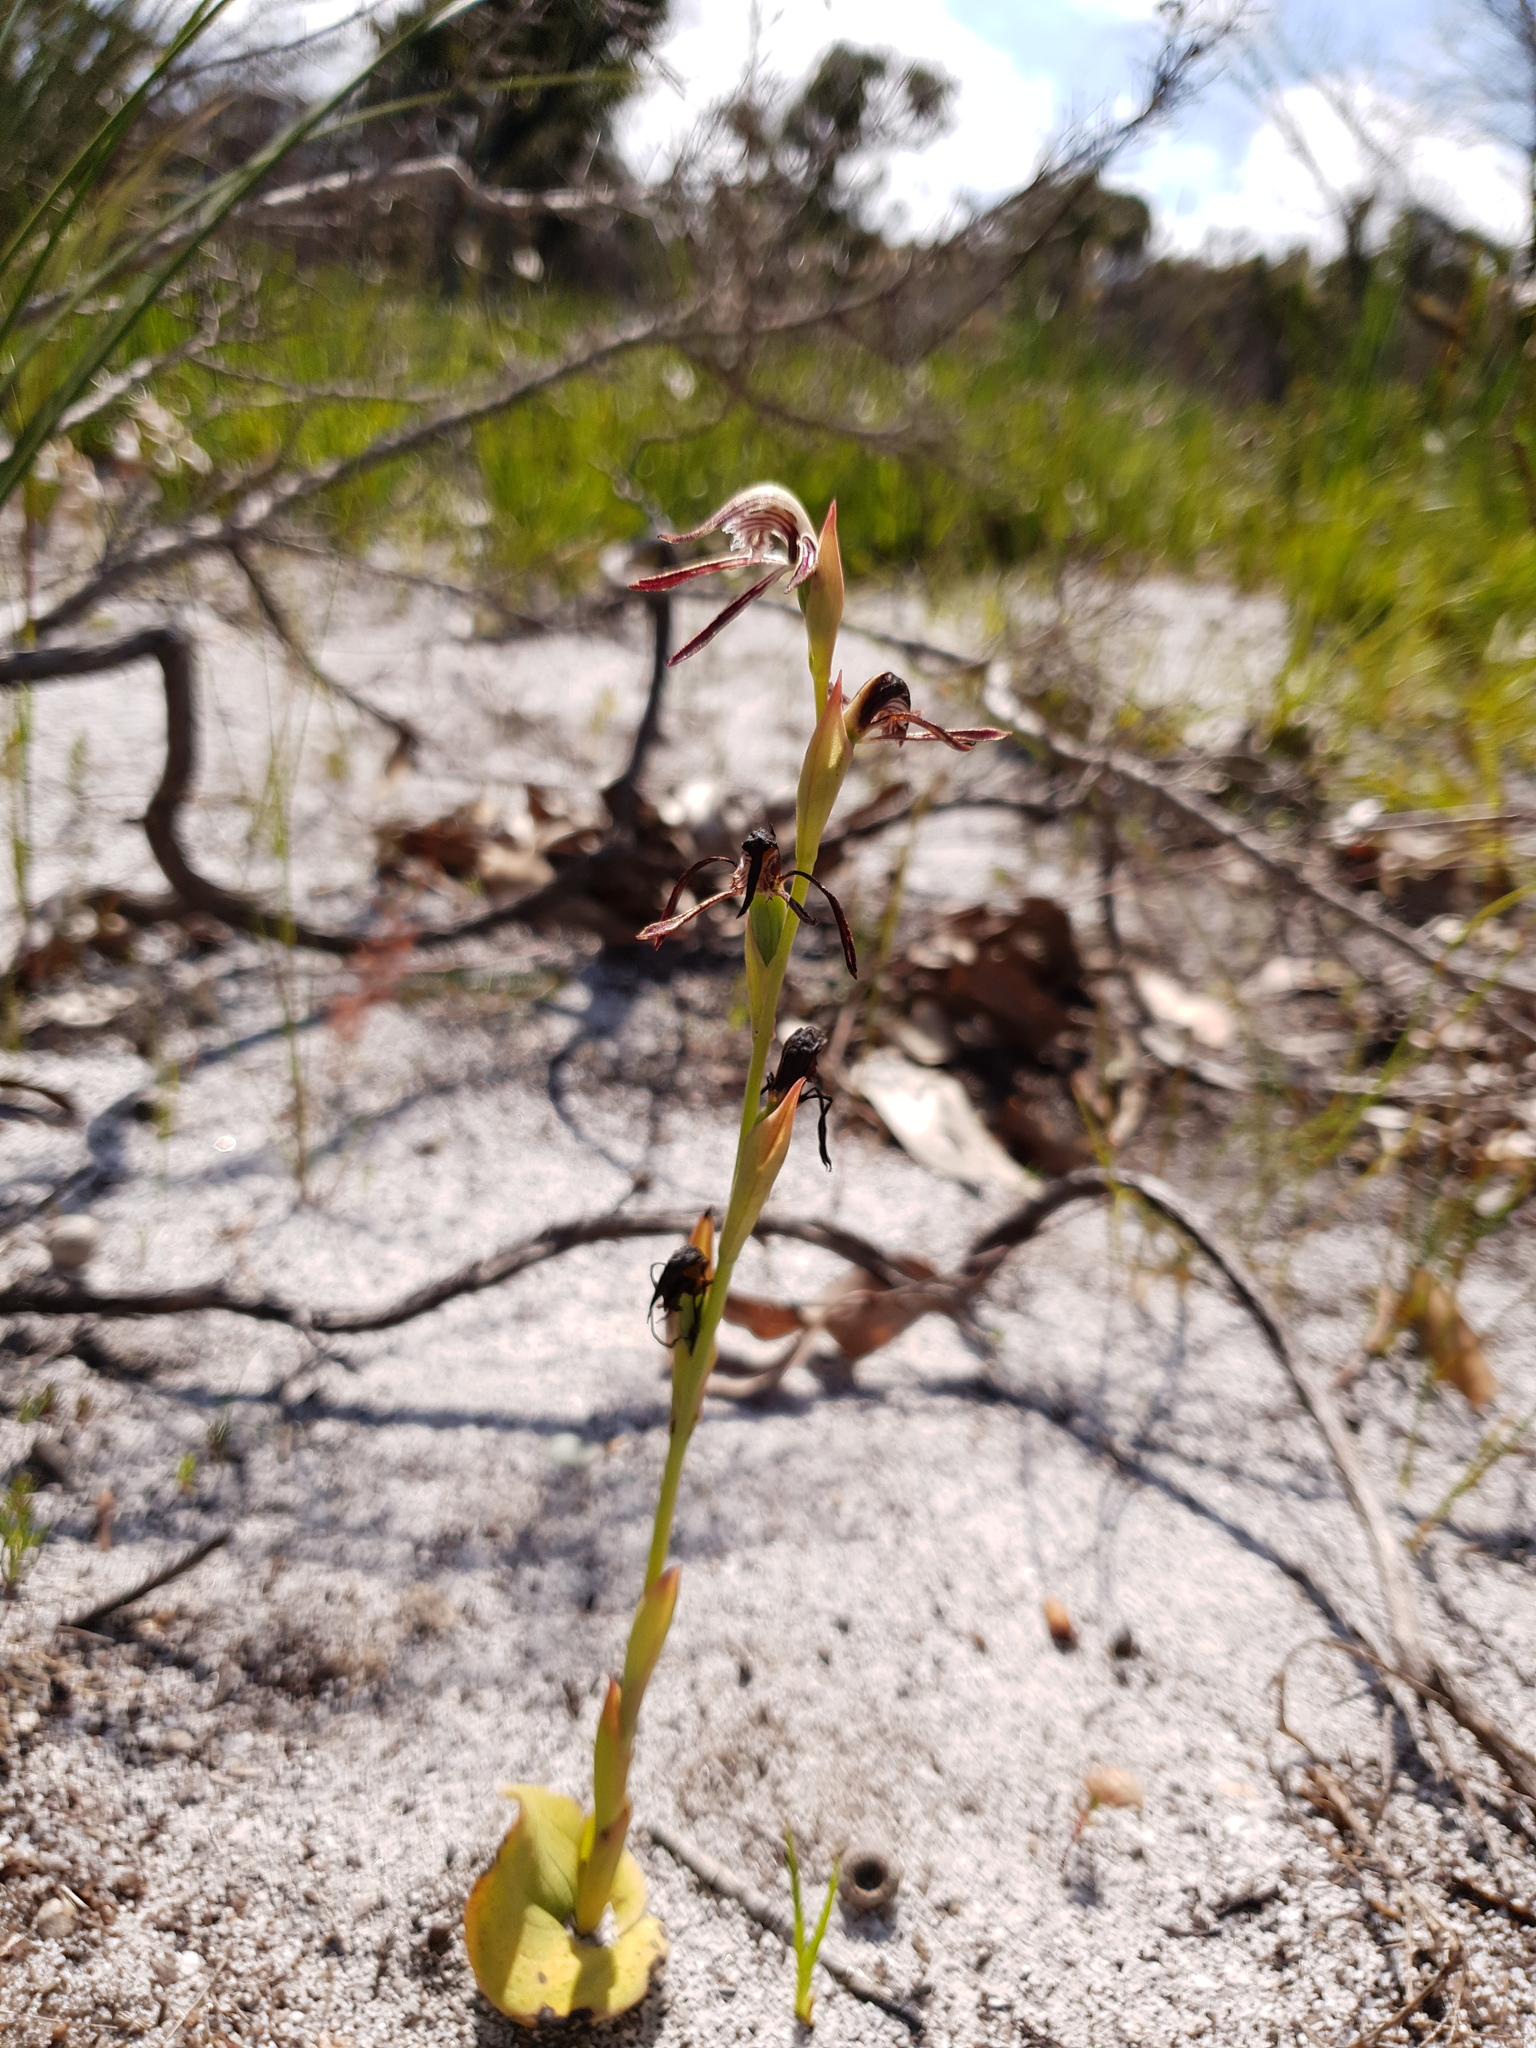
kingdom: Plantae
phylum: Tracheophyta
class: Liliopsida
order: Asparagales
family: Orchidaceae
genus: Pyrorchis
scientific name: Pyrorchis nigricans
